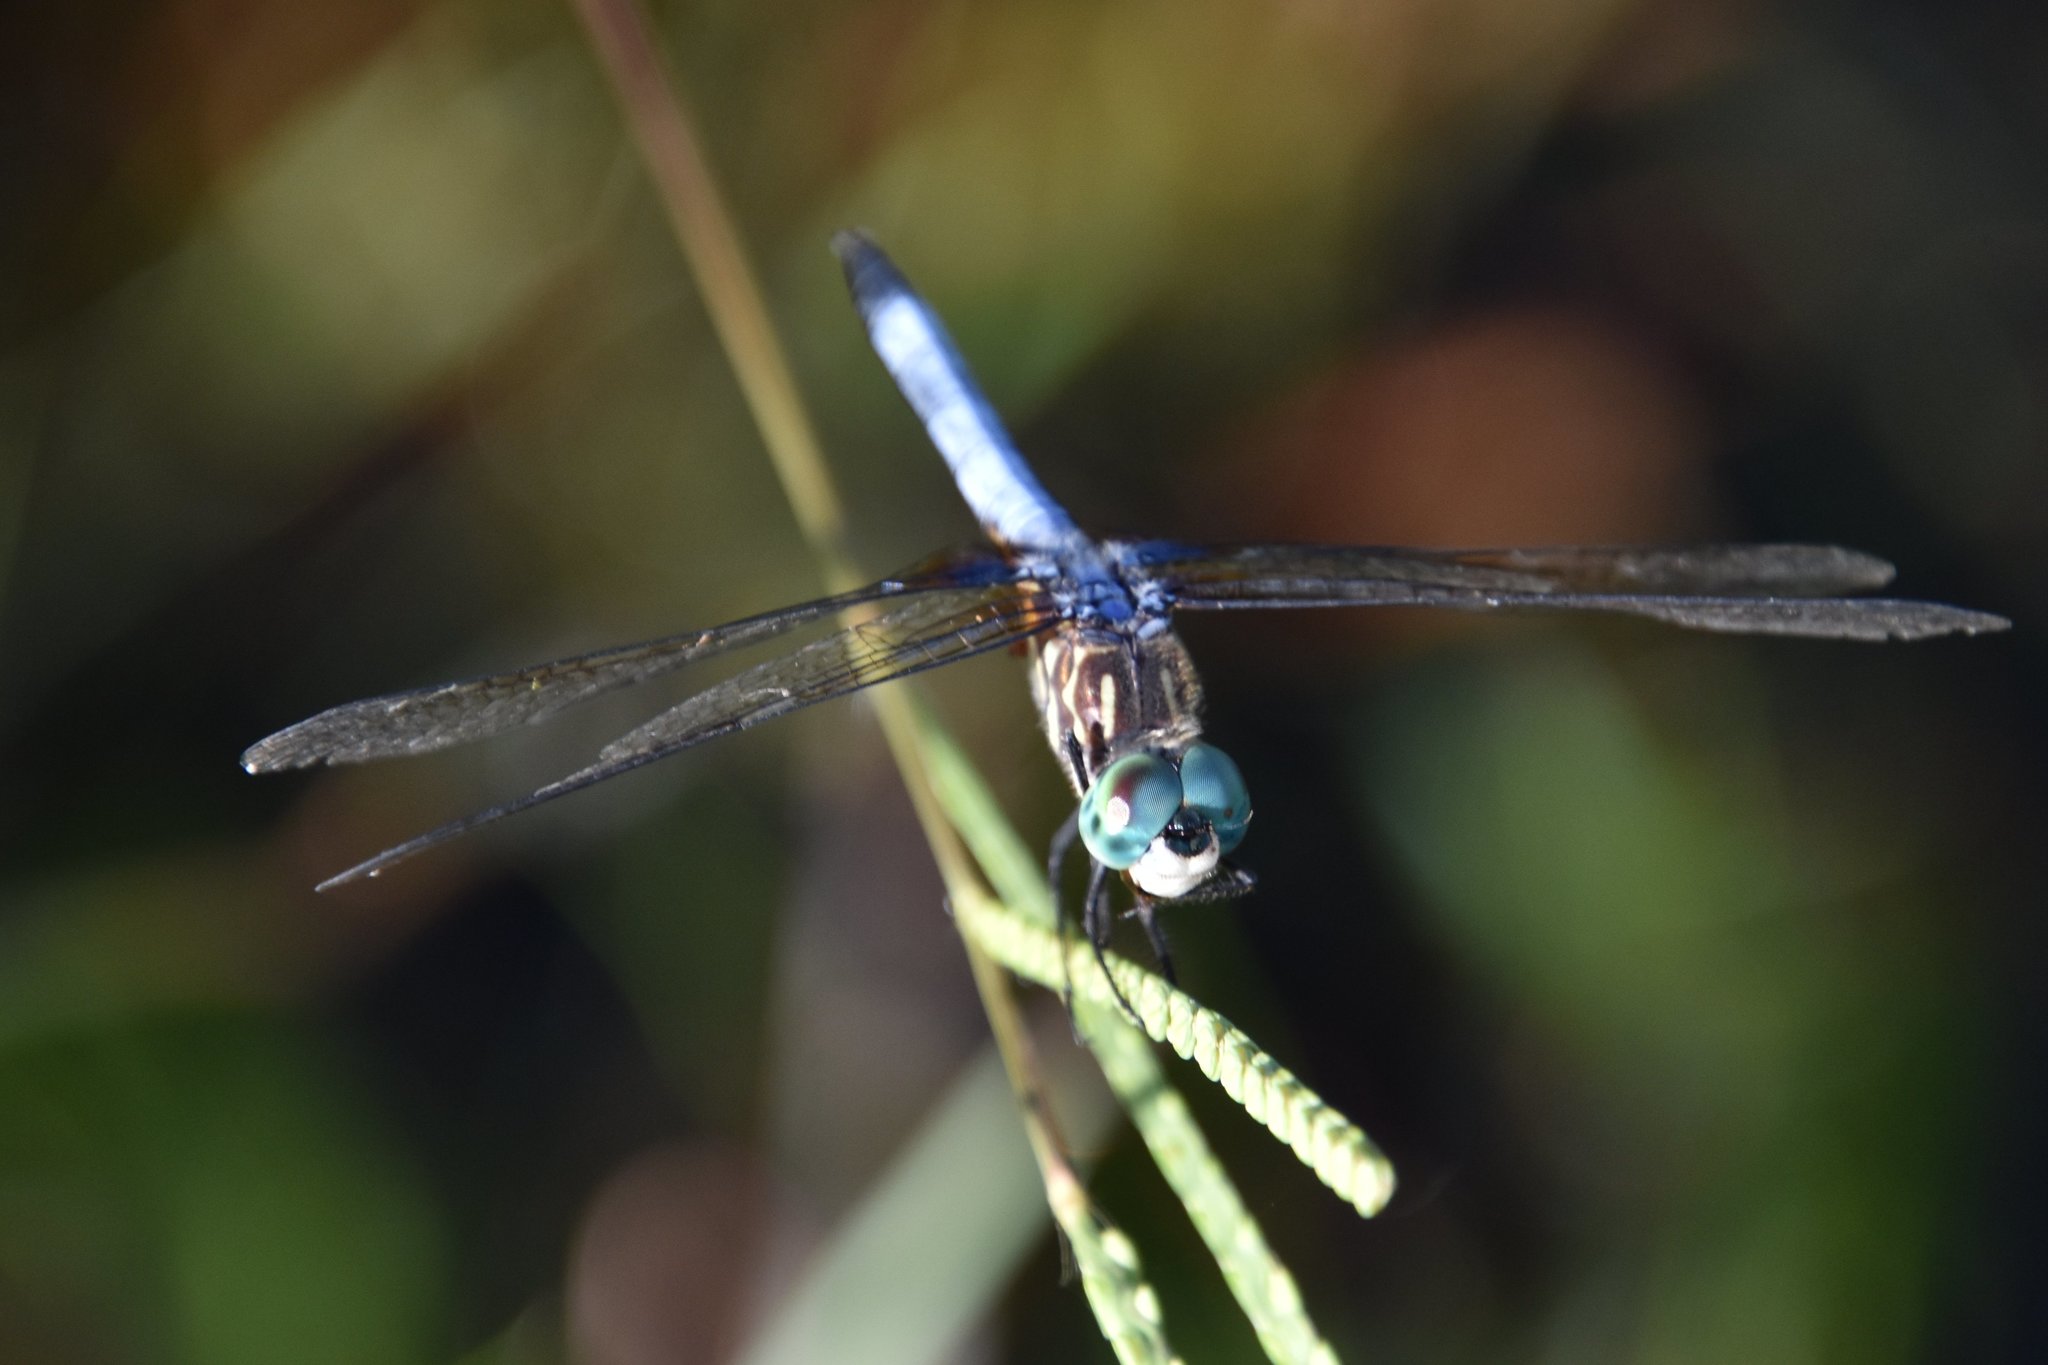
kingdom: Animalia
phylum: Arthropoda
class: Insecta
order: Odonata
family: Libellulidae
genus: Pachydiplax
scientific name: Pachydiplax longipennis
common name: Blue dasher
